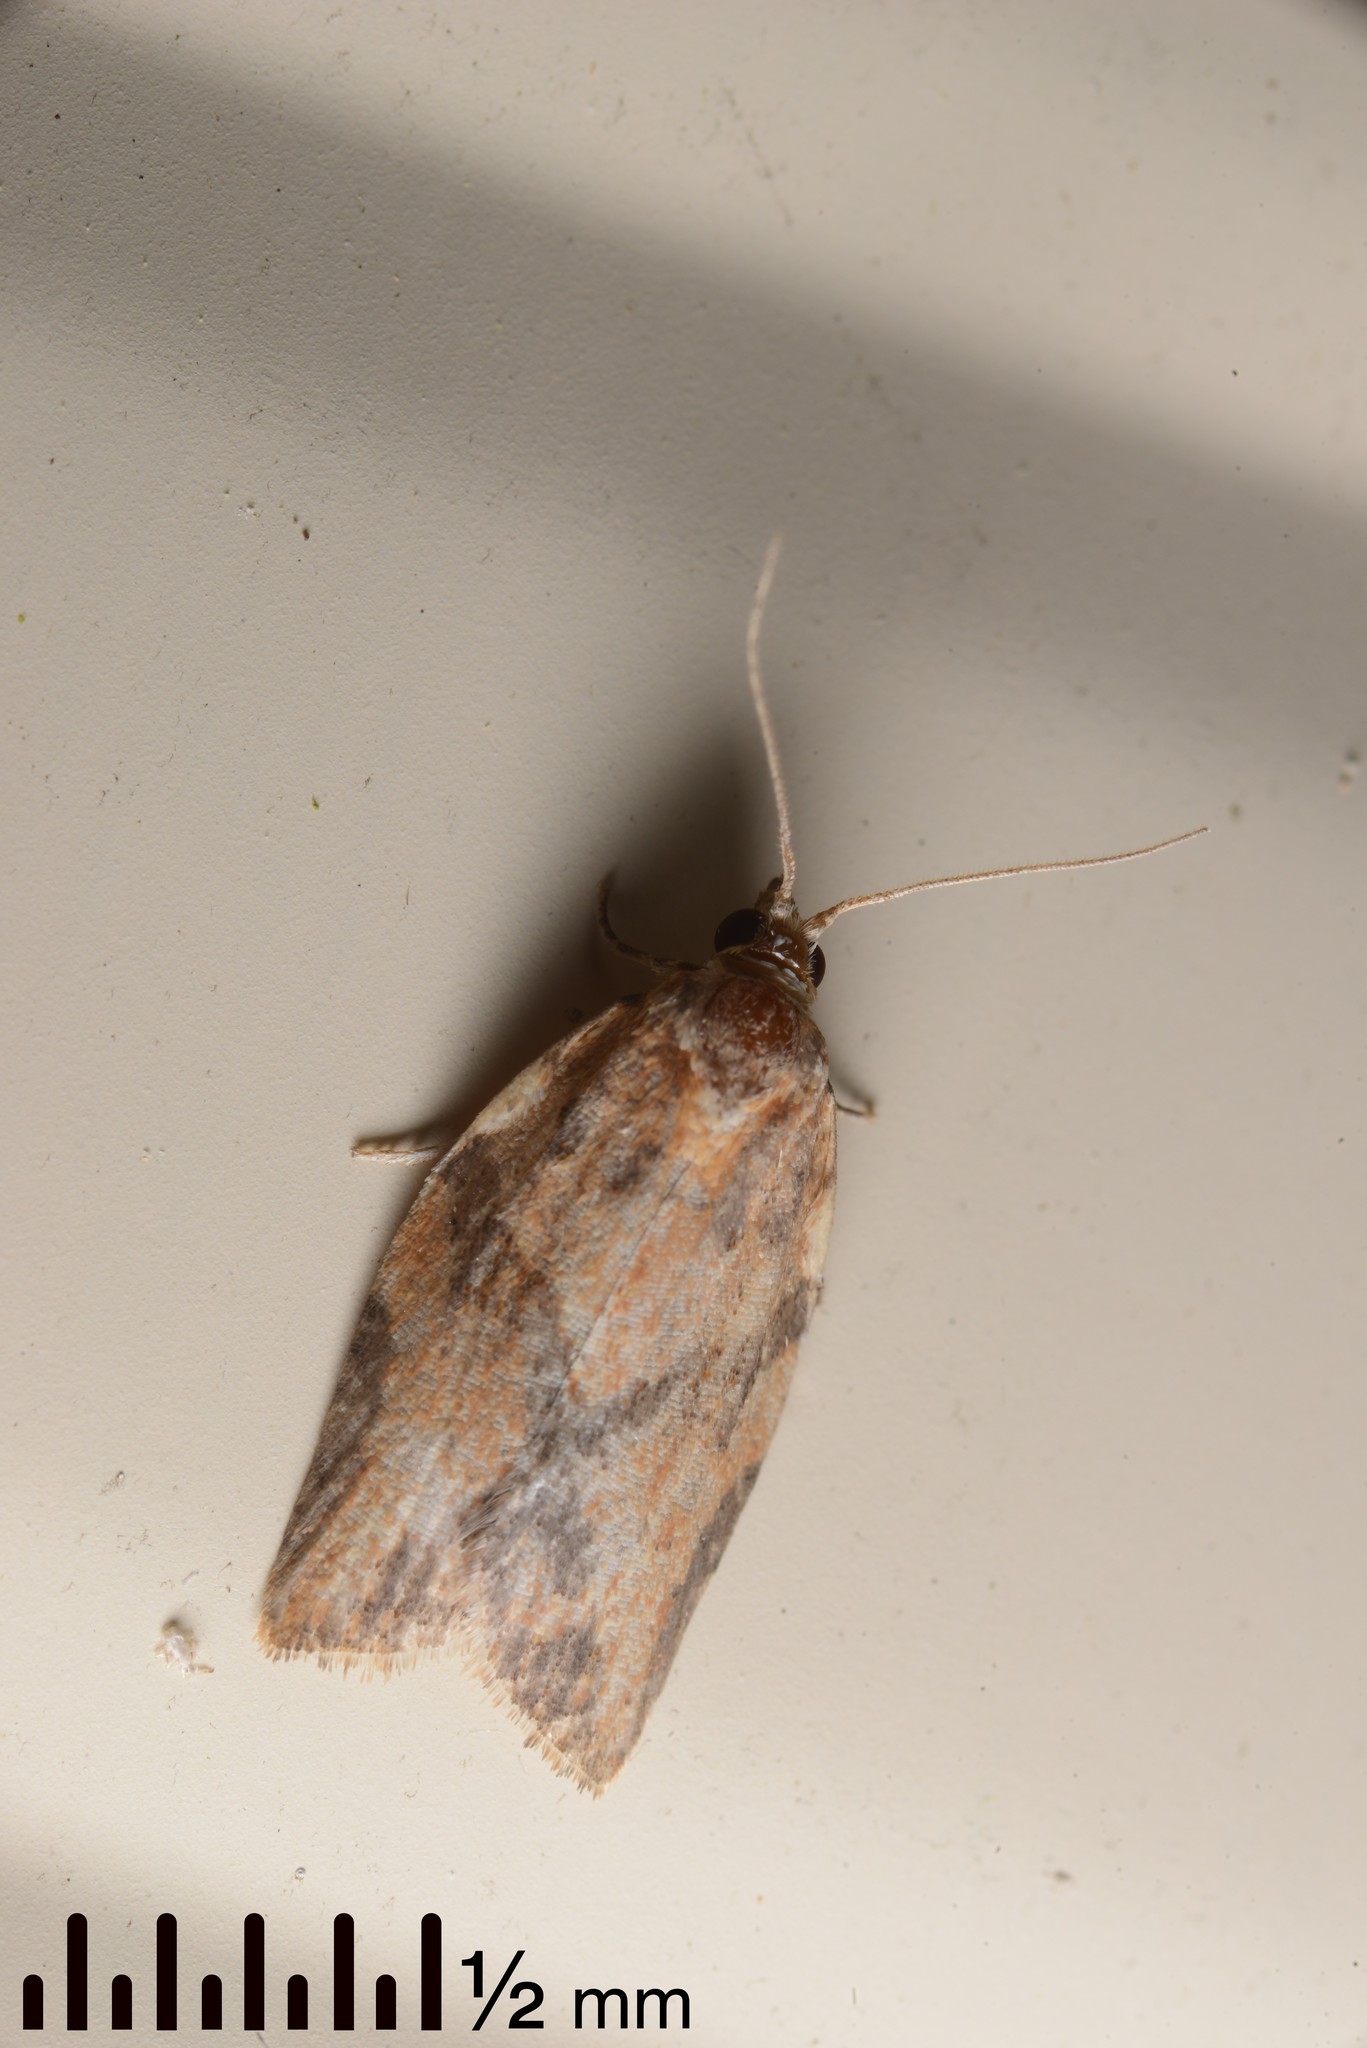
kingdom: Animalia
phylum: Arthropoda
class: Insecta
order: Lepidoptera
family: Tortricidae
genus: Epiphyas
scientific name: Epiphyas postvittana
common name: Light brown apple moth
